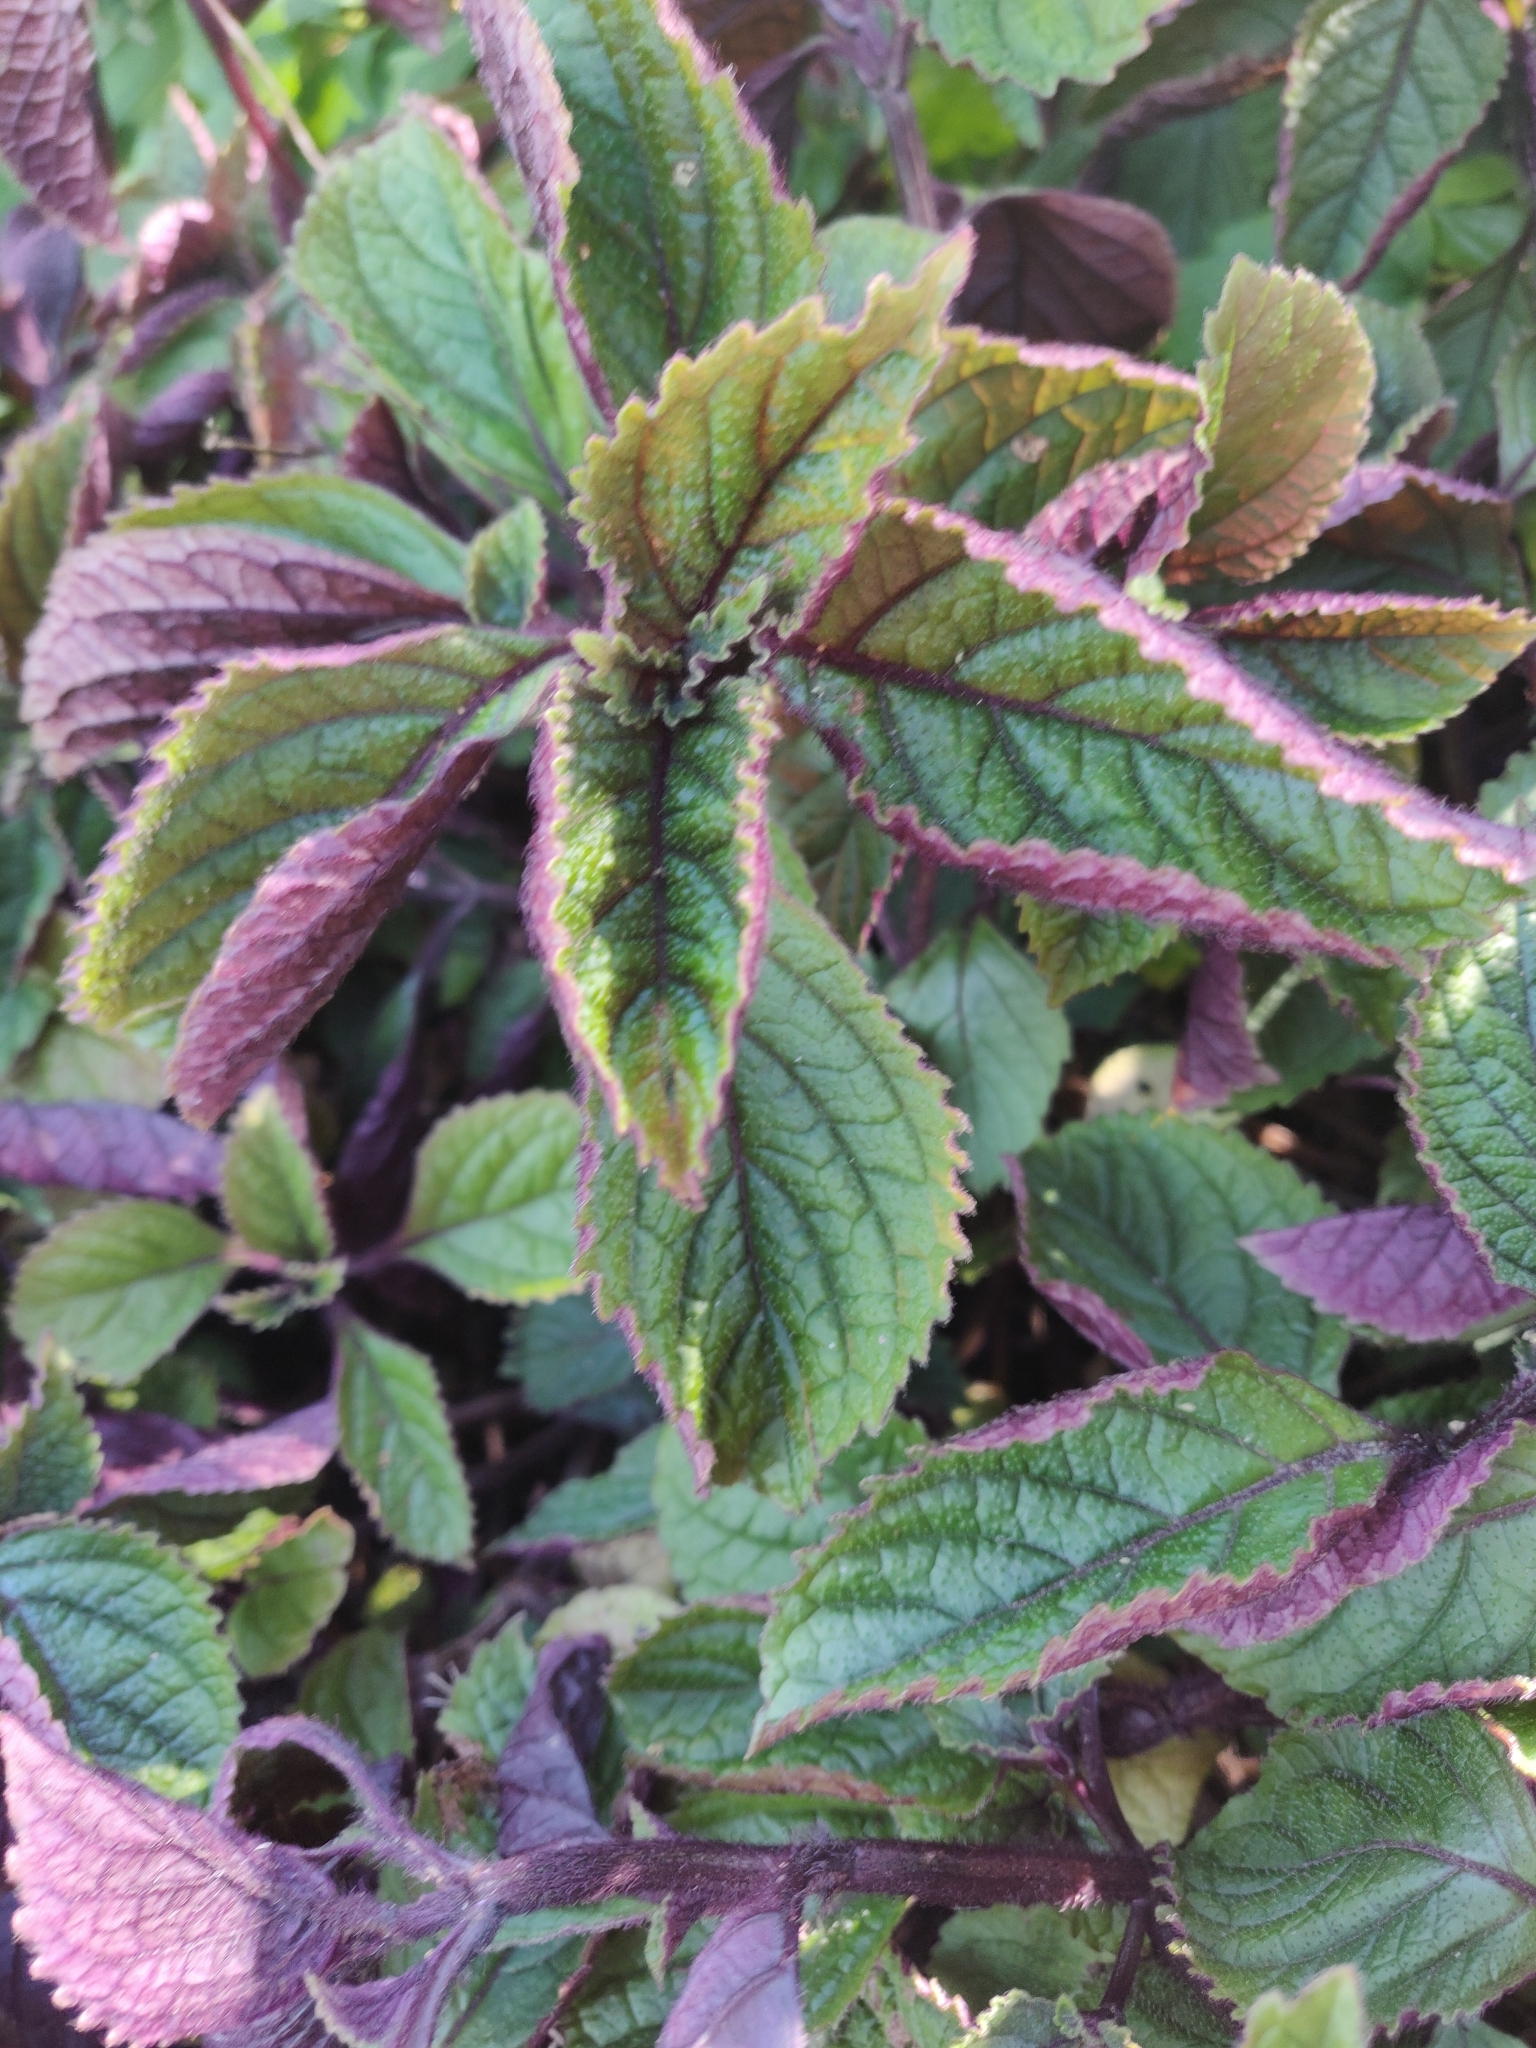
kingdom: Plantae
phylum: Tracheophyta
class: Magnoliopsida
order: Lamiales
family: Lamiaceae
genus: Plectranthus
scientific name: Plectranthus ciliatus
